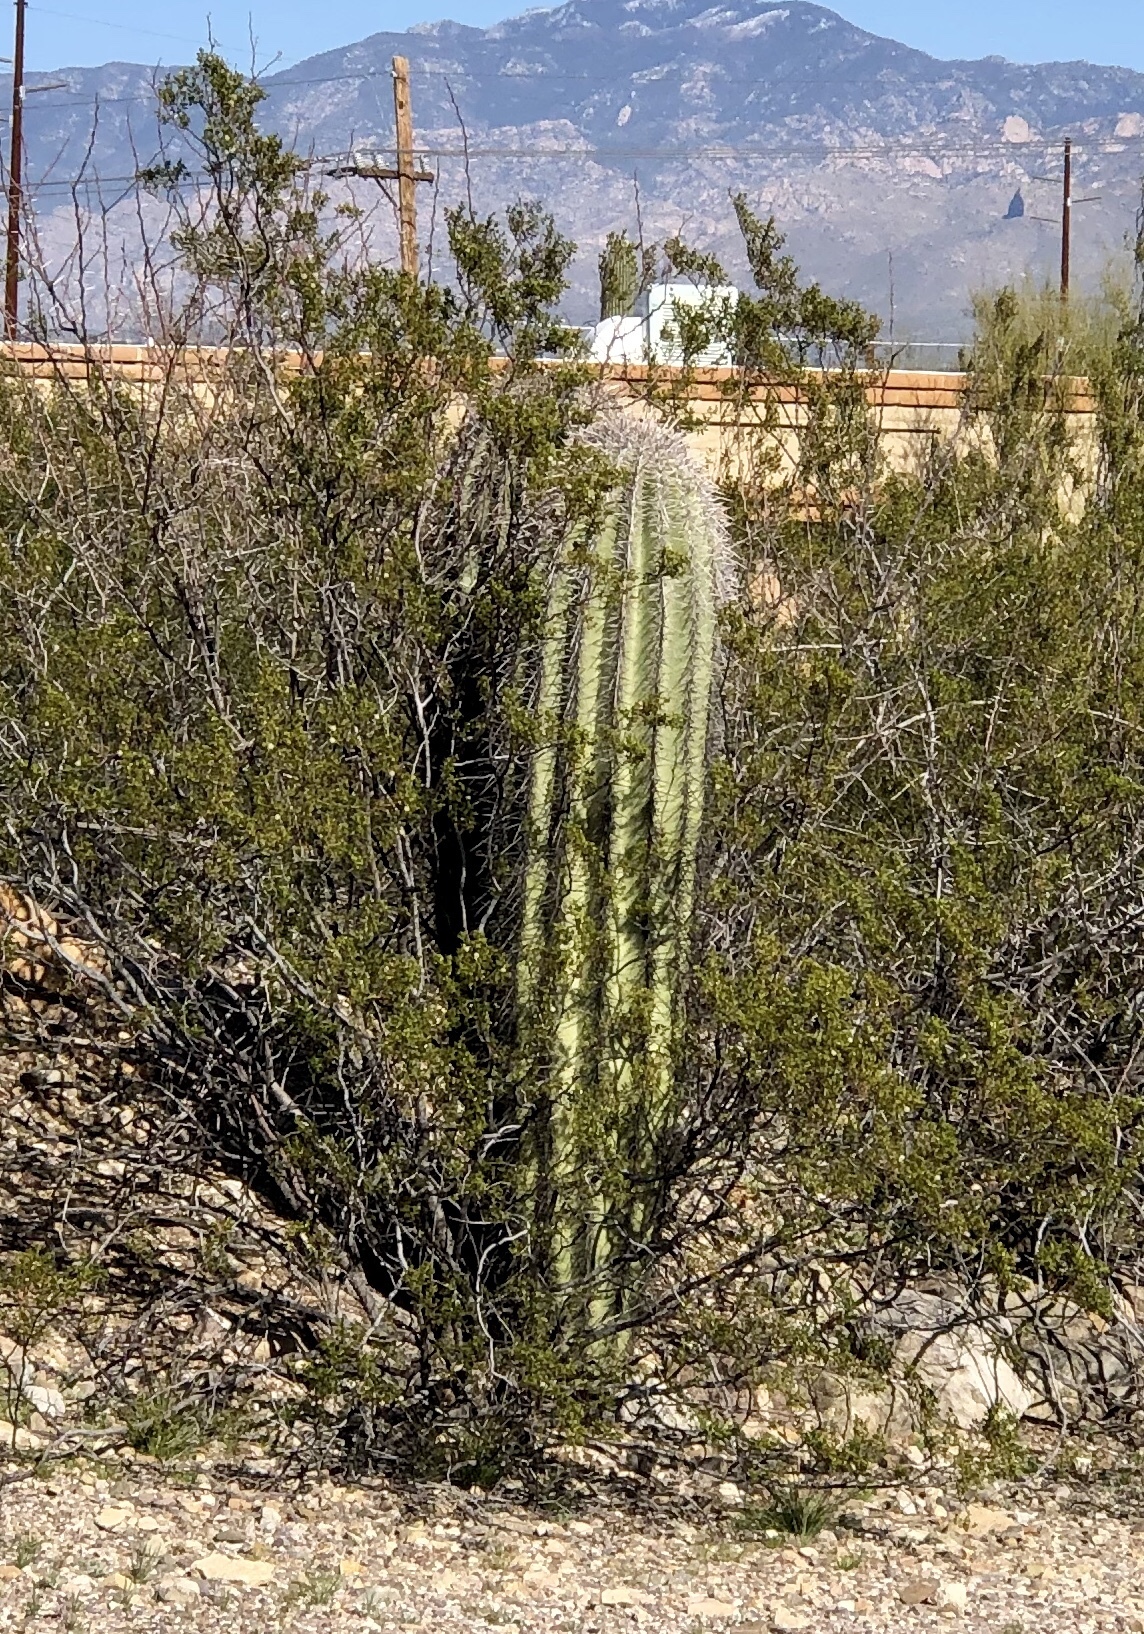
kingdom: Plantae
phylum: Tracheophyta
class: Magnoliopsida
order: Caryophyllales
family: Cactaceae
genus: Carnegiea
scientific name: Carnegiea gigantea
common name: Saguaro
